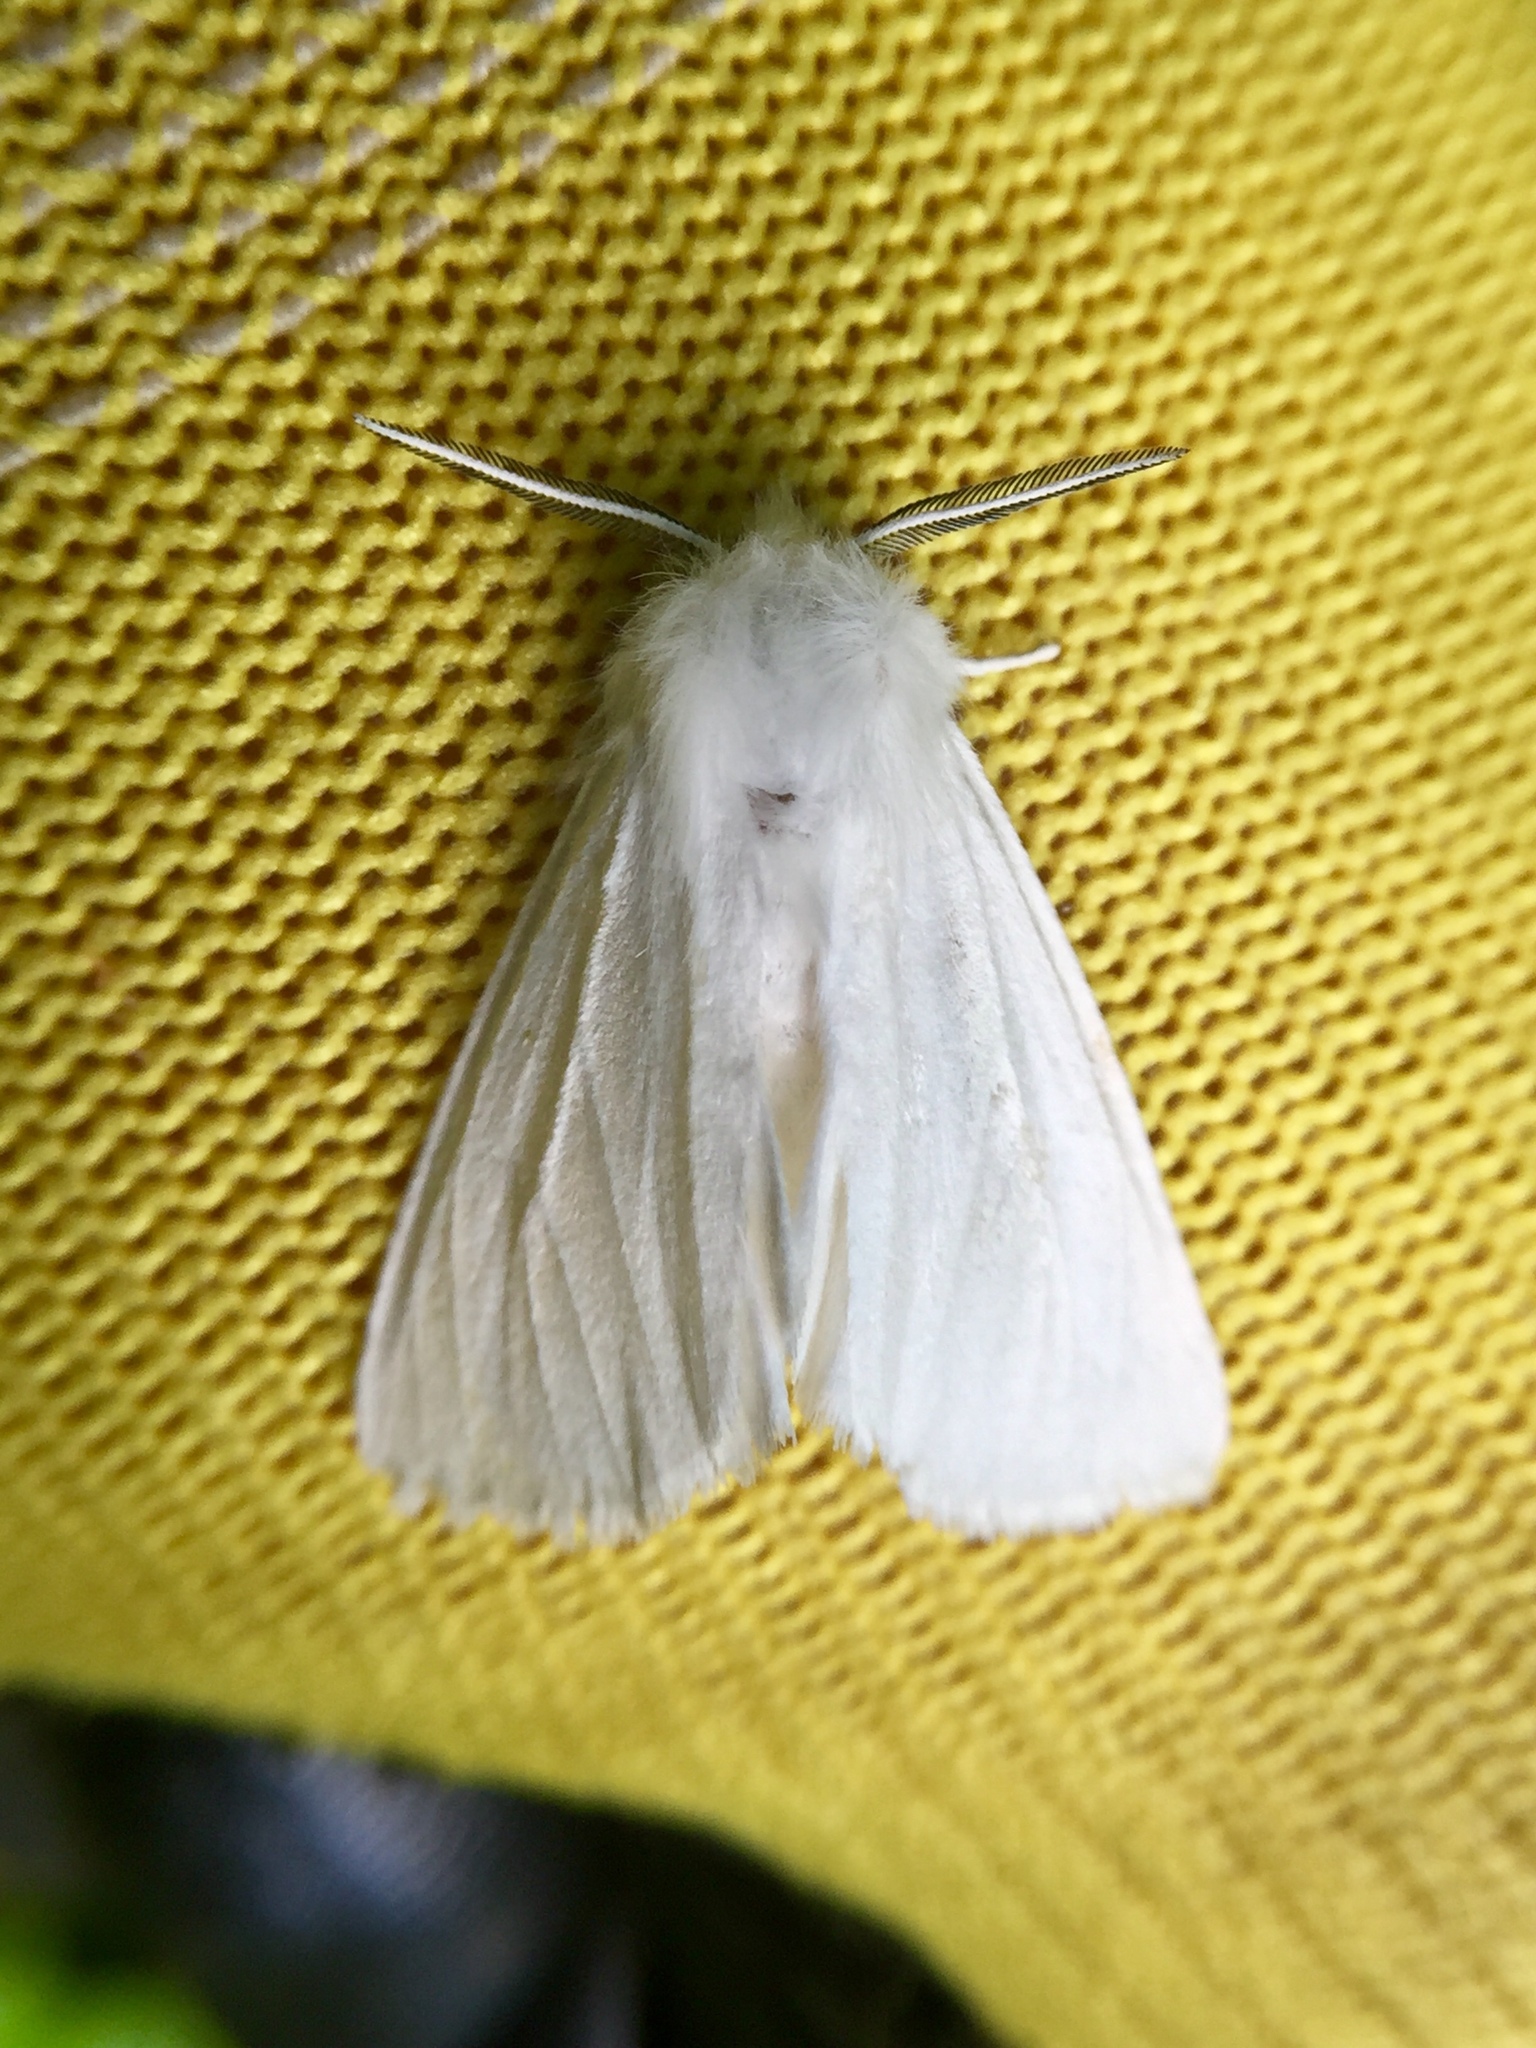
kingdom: Animalia
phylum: Arthropoda
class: Insecta
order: Lepidoptera
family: Erebidae
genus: Spilosoma
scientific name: Spilosoma latipennis
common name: Pink-legged tiger moth
